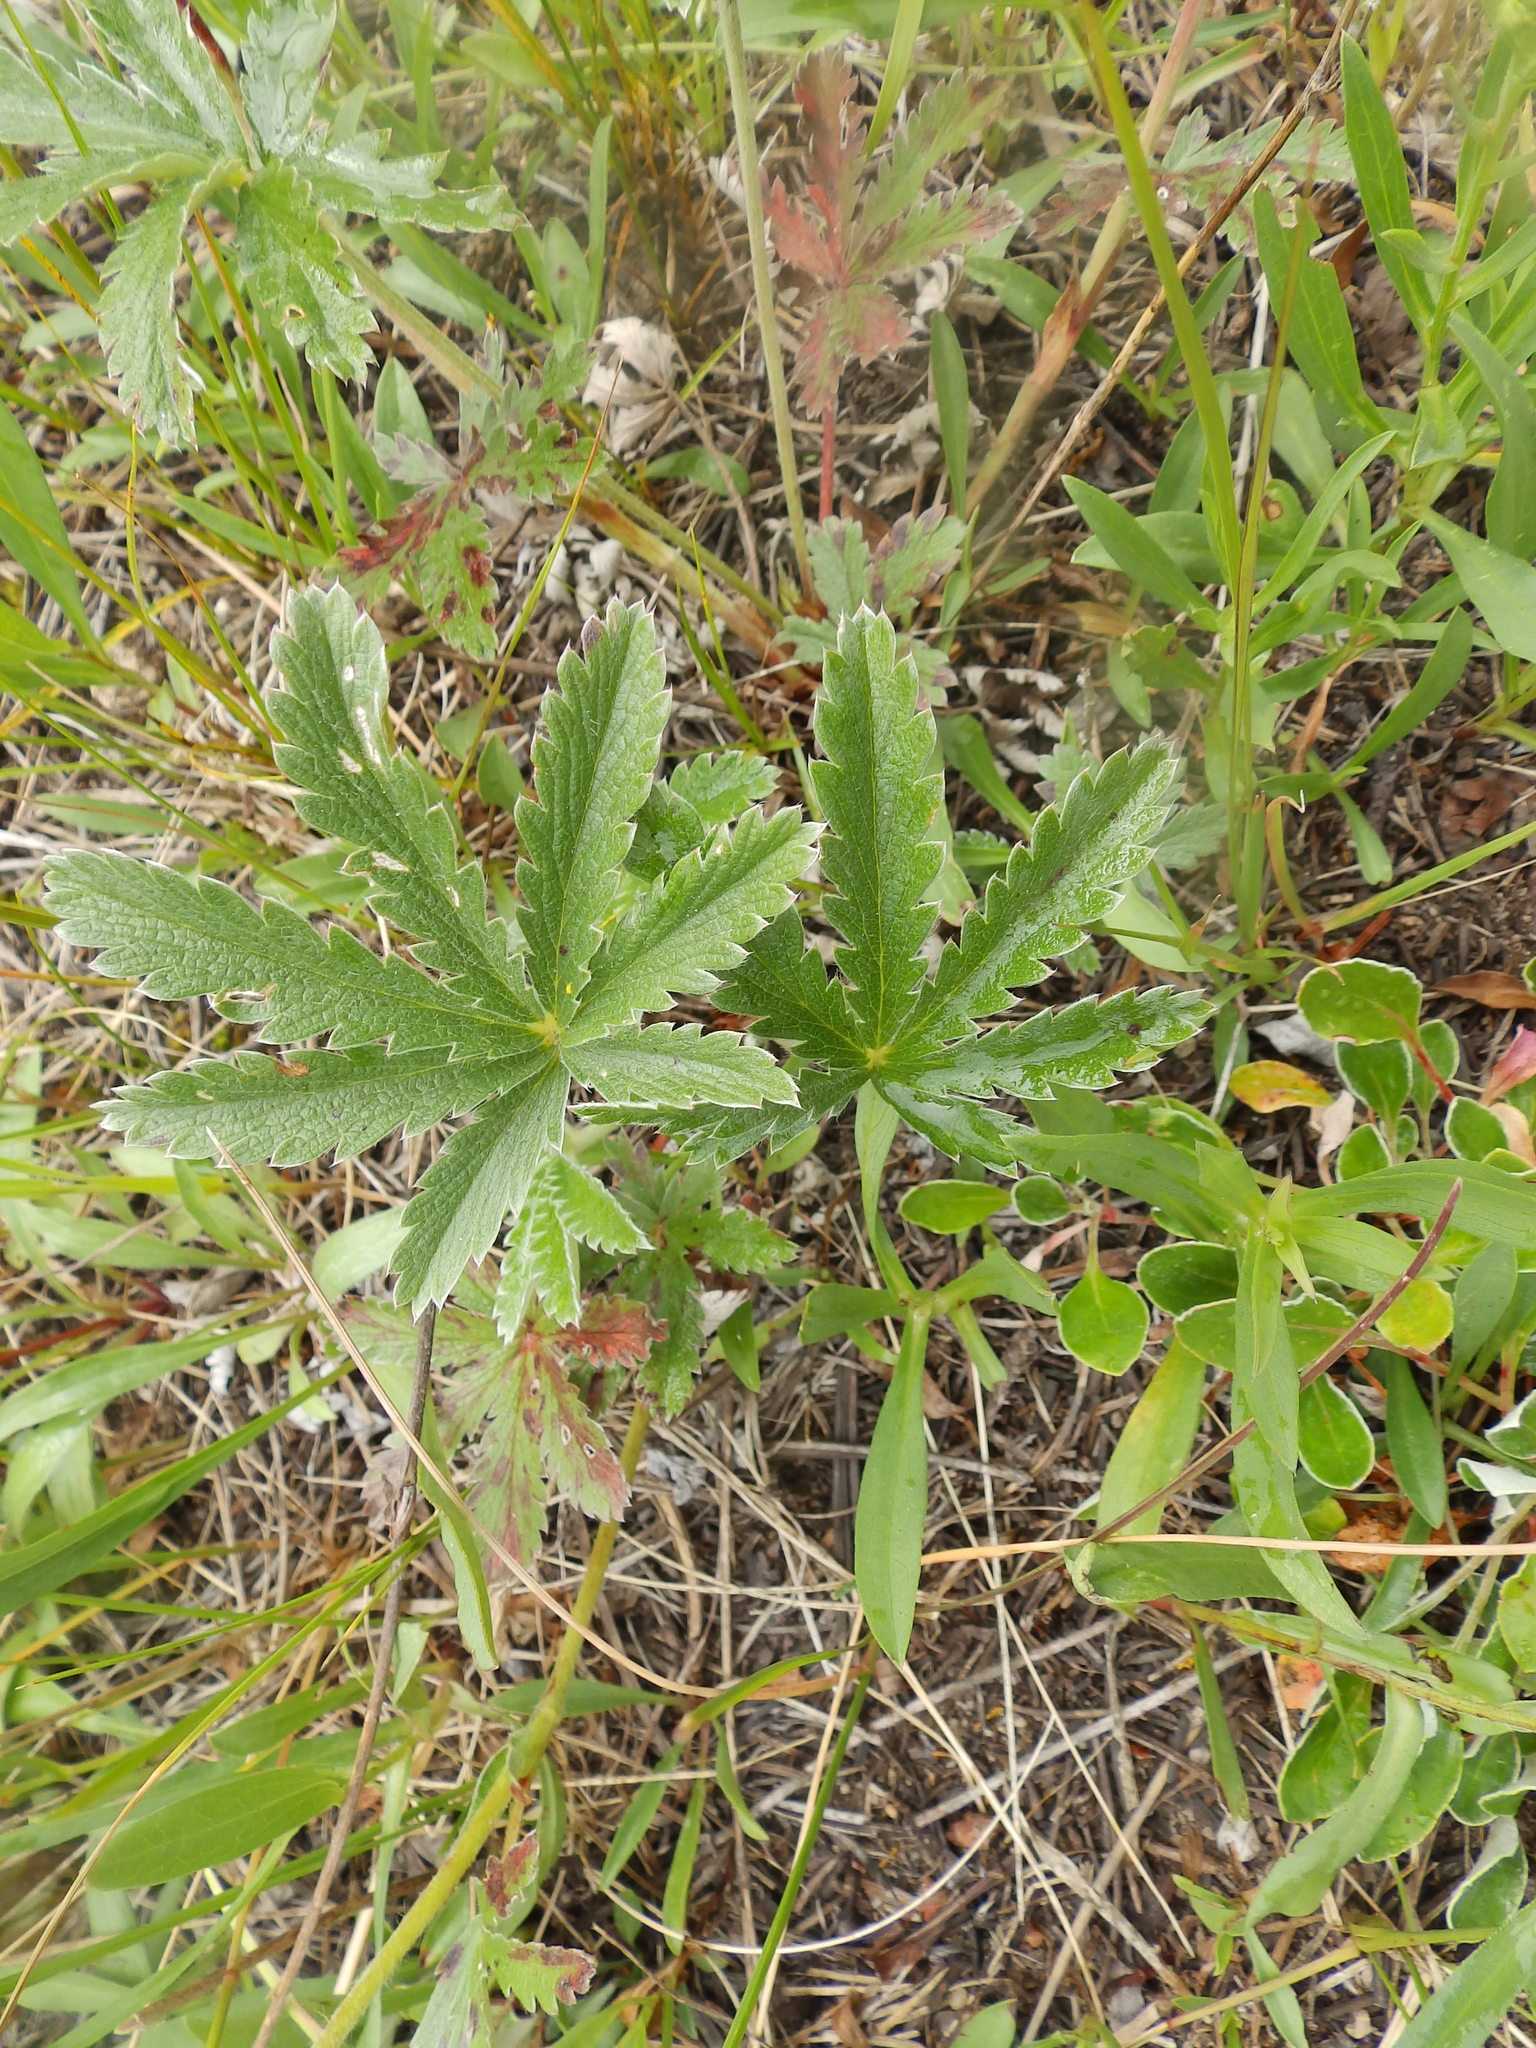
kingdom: Plantae
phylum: Tracheophyta
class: Magnoliopsida
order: Fabales
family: Fabaceae
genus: Lupinus
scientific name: Lupinus argenteus
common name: Silvery lupine
